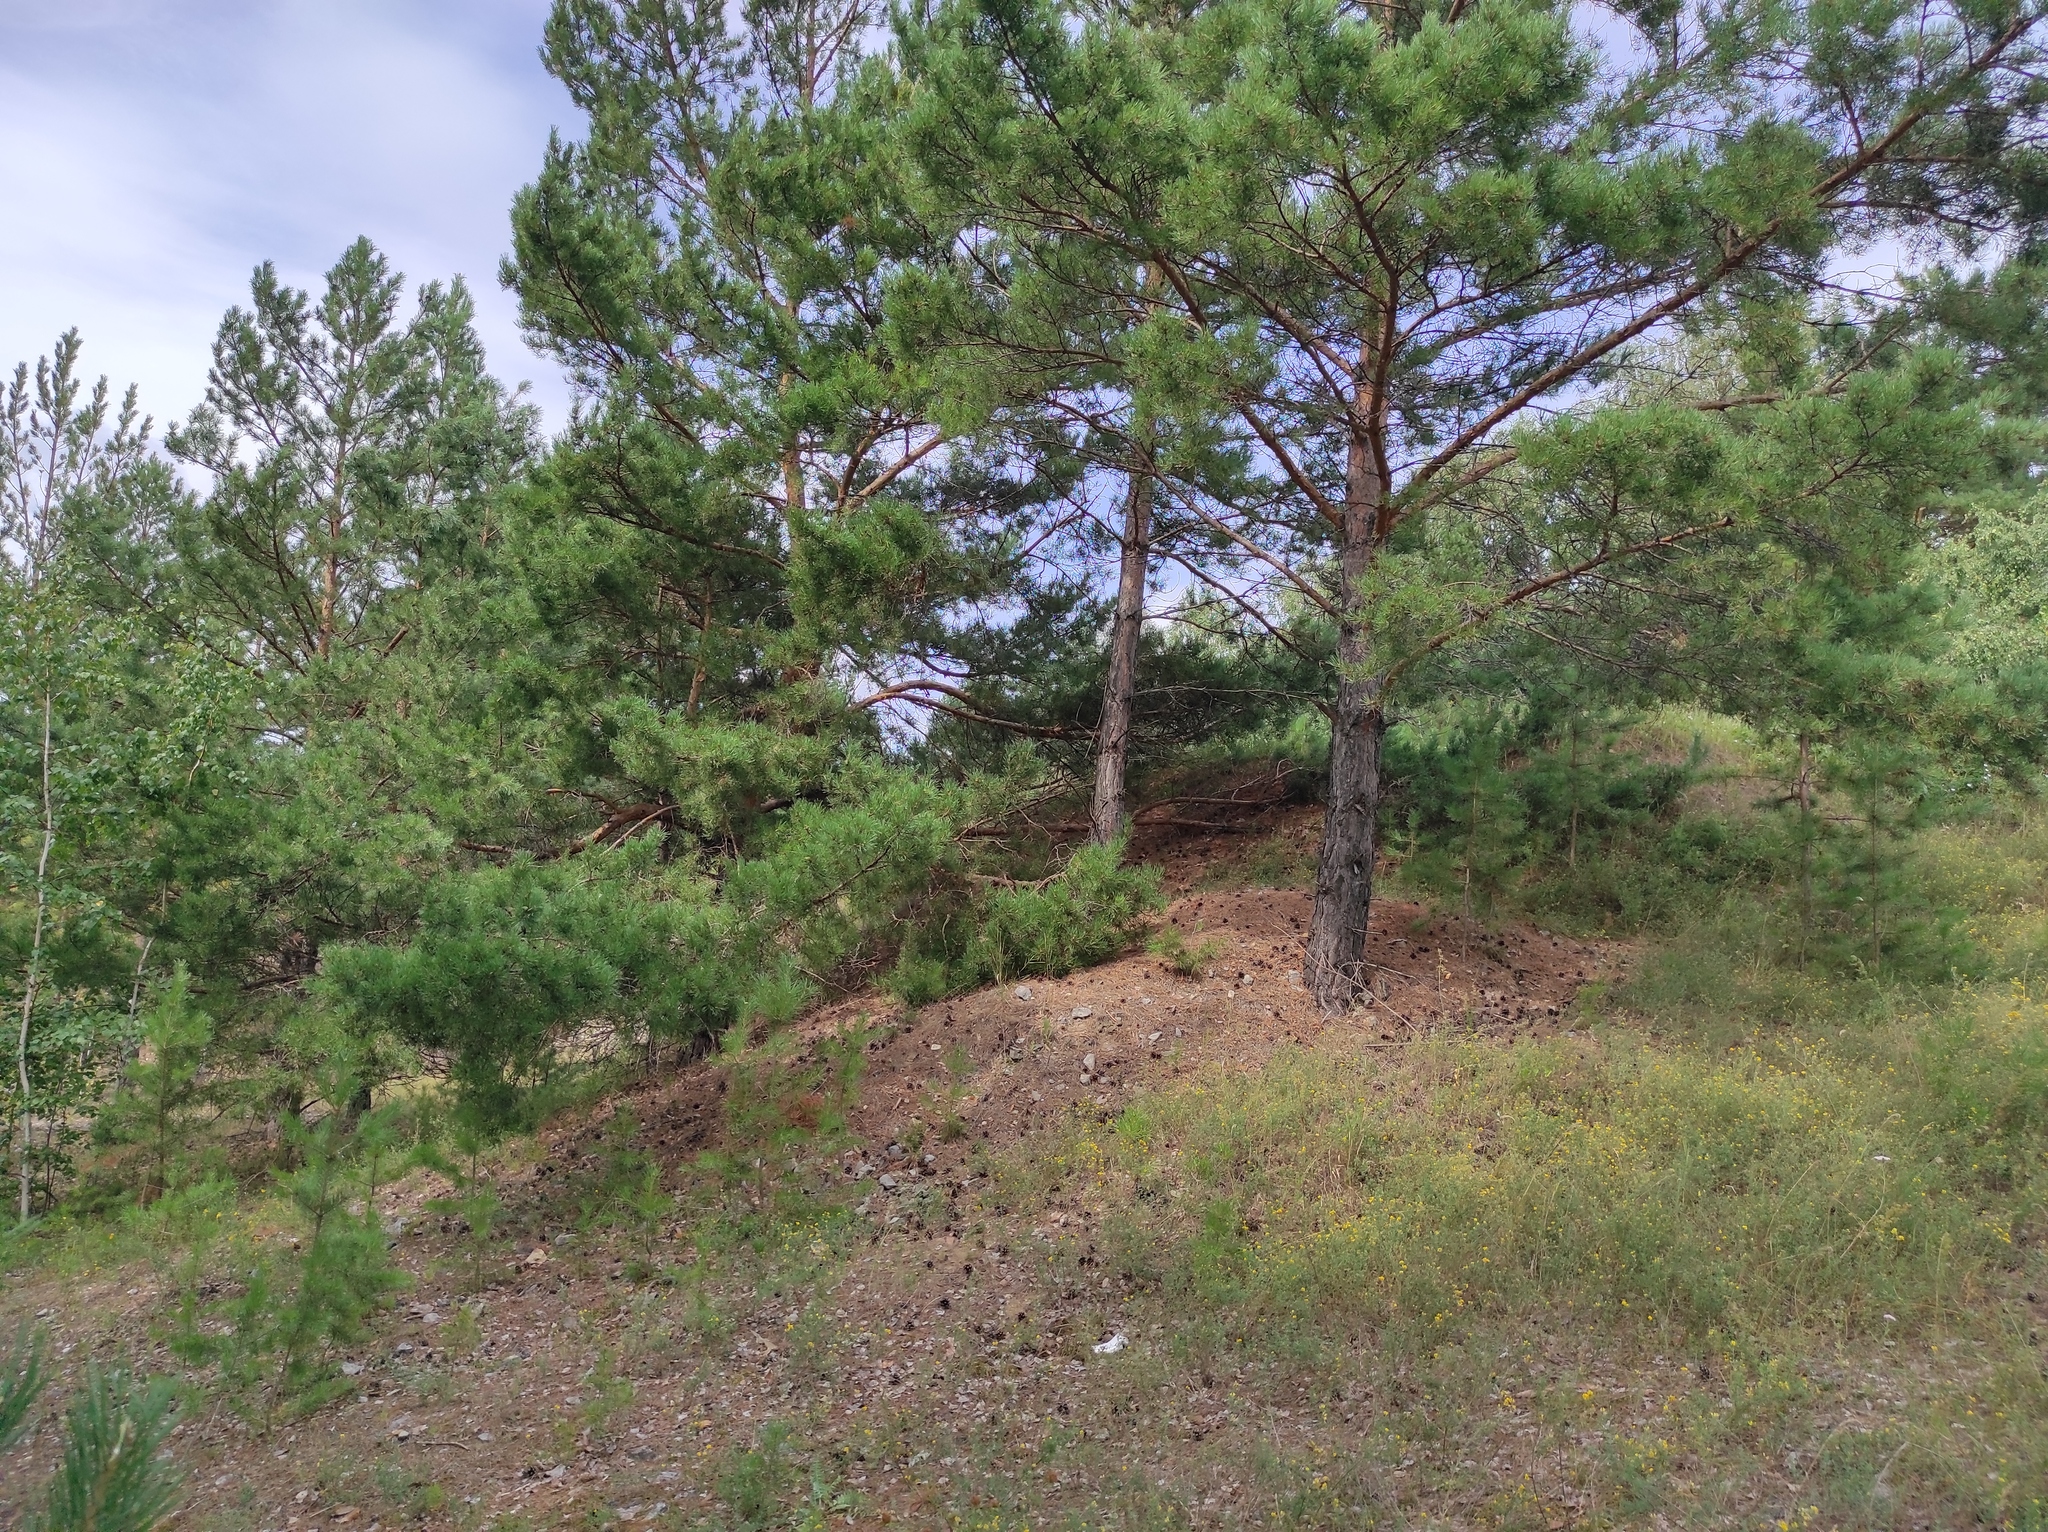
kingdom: Plantae
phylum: Tracheophyta
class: Pinopsida
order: Pinales
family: Pinaceae
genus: Pinus
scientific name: Pinus sylvestris
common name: Scots pine
